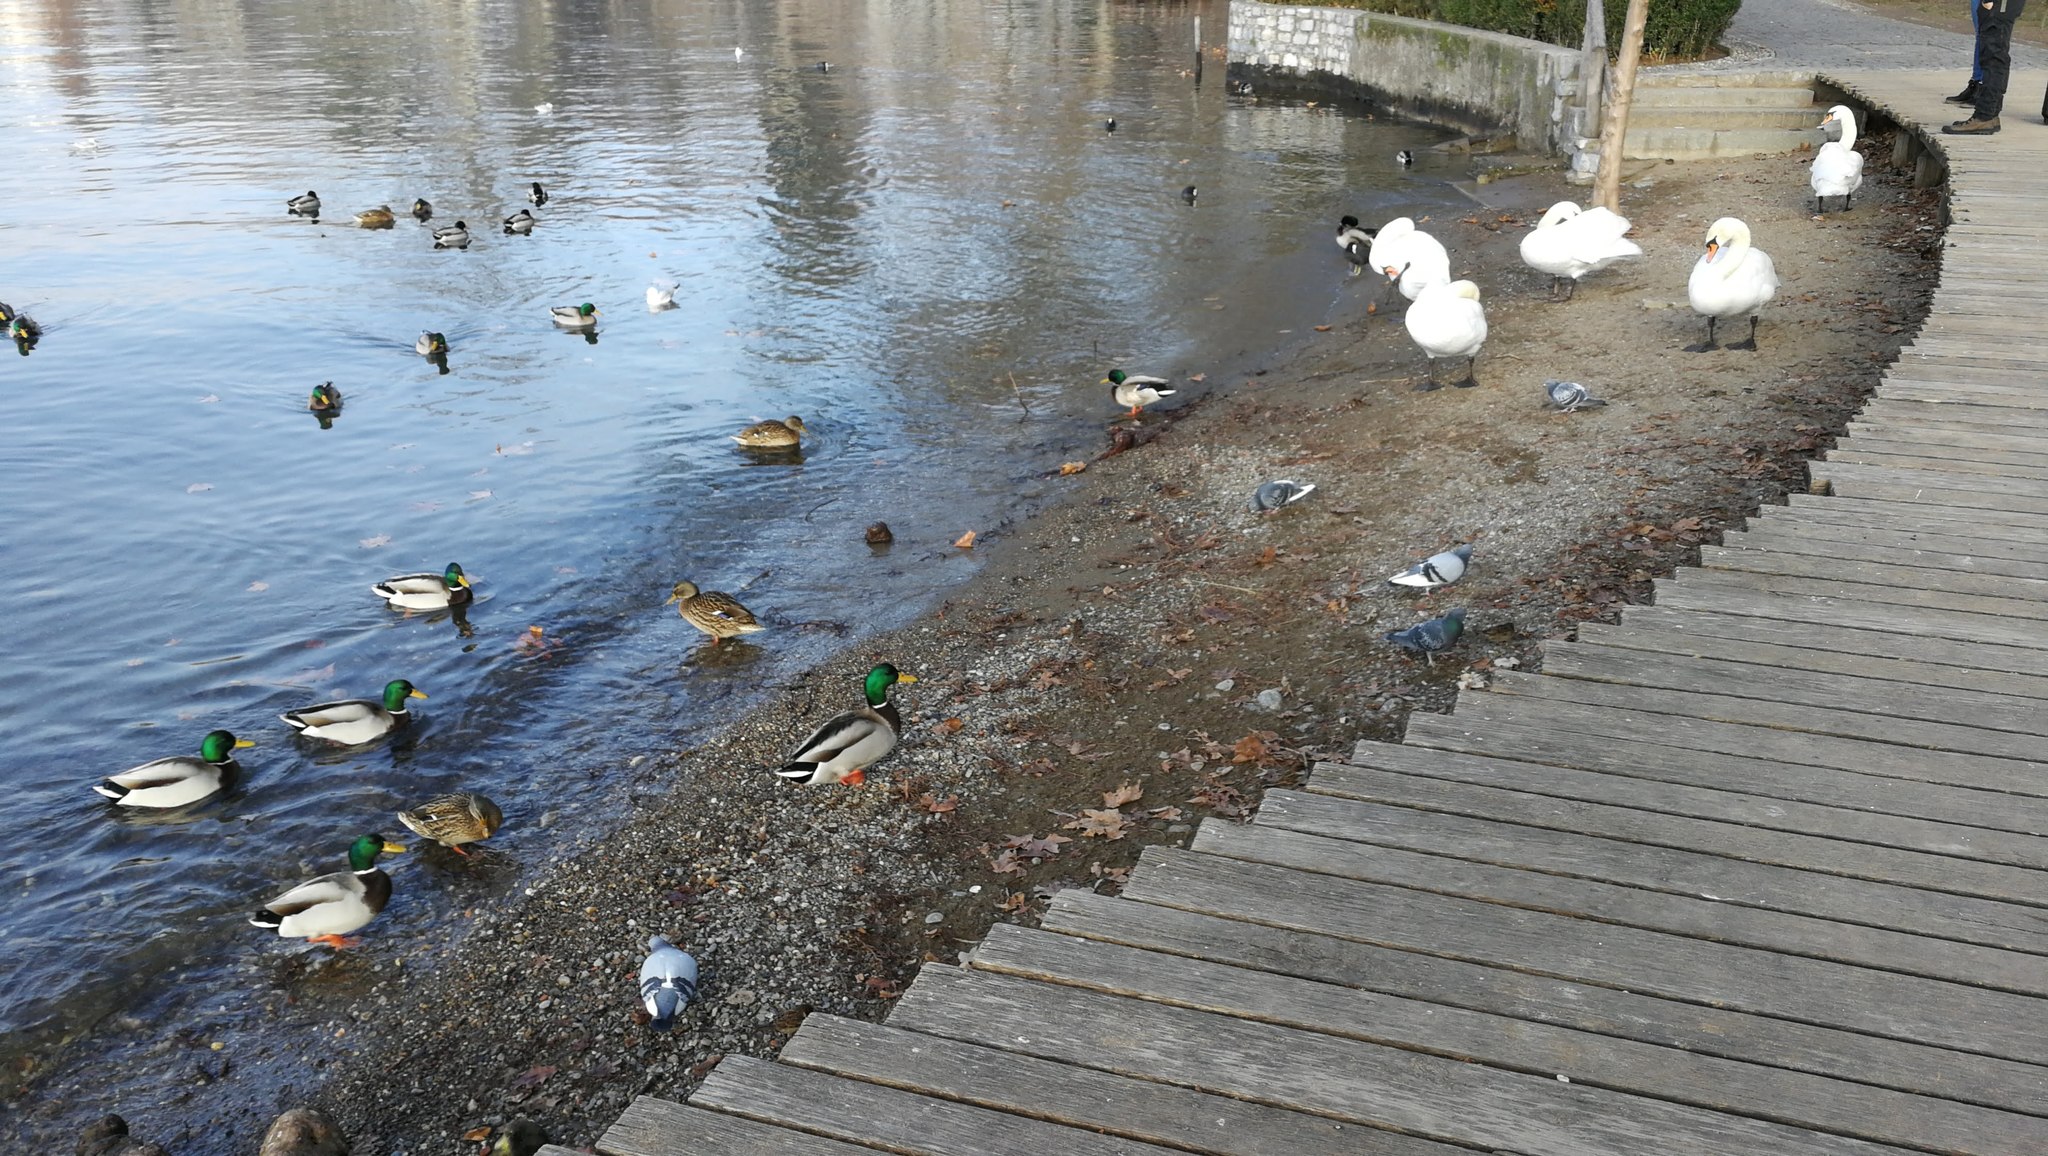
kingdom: Animalia
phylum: Chordata
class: Aves
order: Anseriformes
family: Anatidae
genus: Cygnus
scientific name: Cygnus olor
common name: Mute swan
